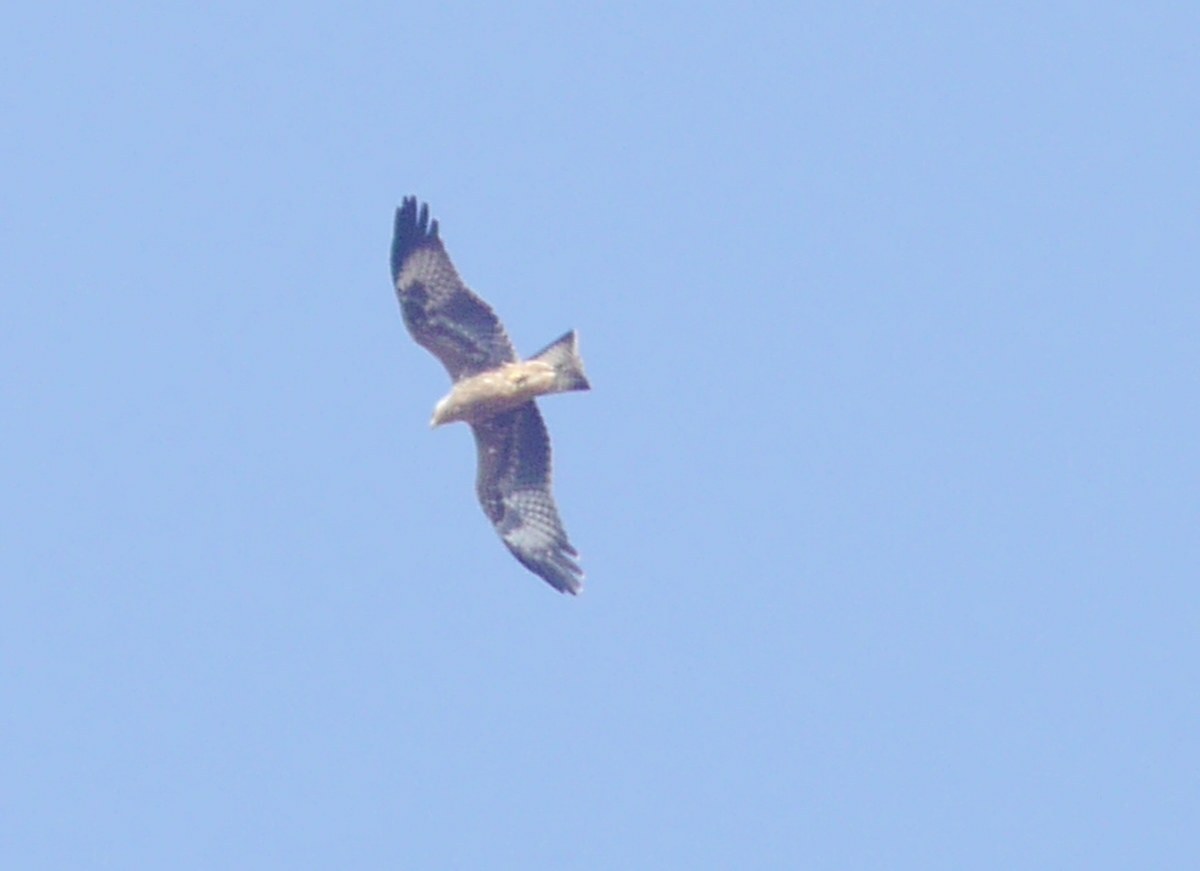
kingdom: Animalia
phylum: Chordata
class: Aves
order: Accipitriformes
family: Accipitridae
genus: Milvus
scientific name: Milvus migrans
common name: Black kite
